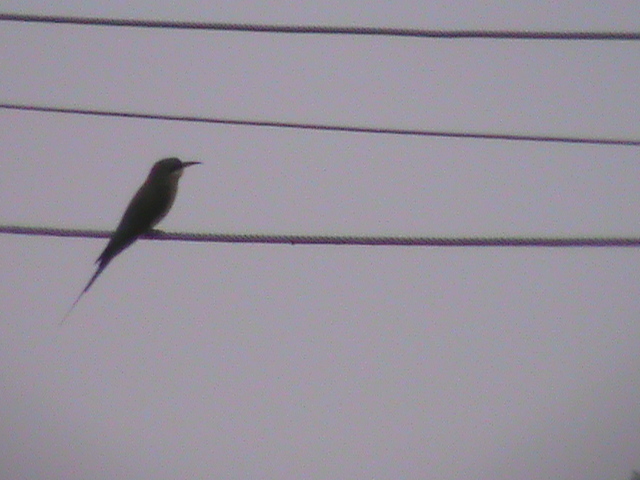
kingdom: Animalia
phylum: Chordata
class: Aves
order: Coraciiformes
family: Meropidae
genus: Merops
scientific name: Merops philippinus
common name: Blue-tailed bee-eater
